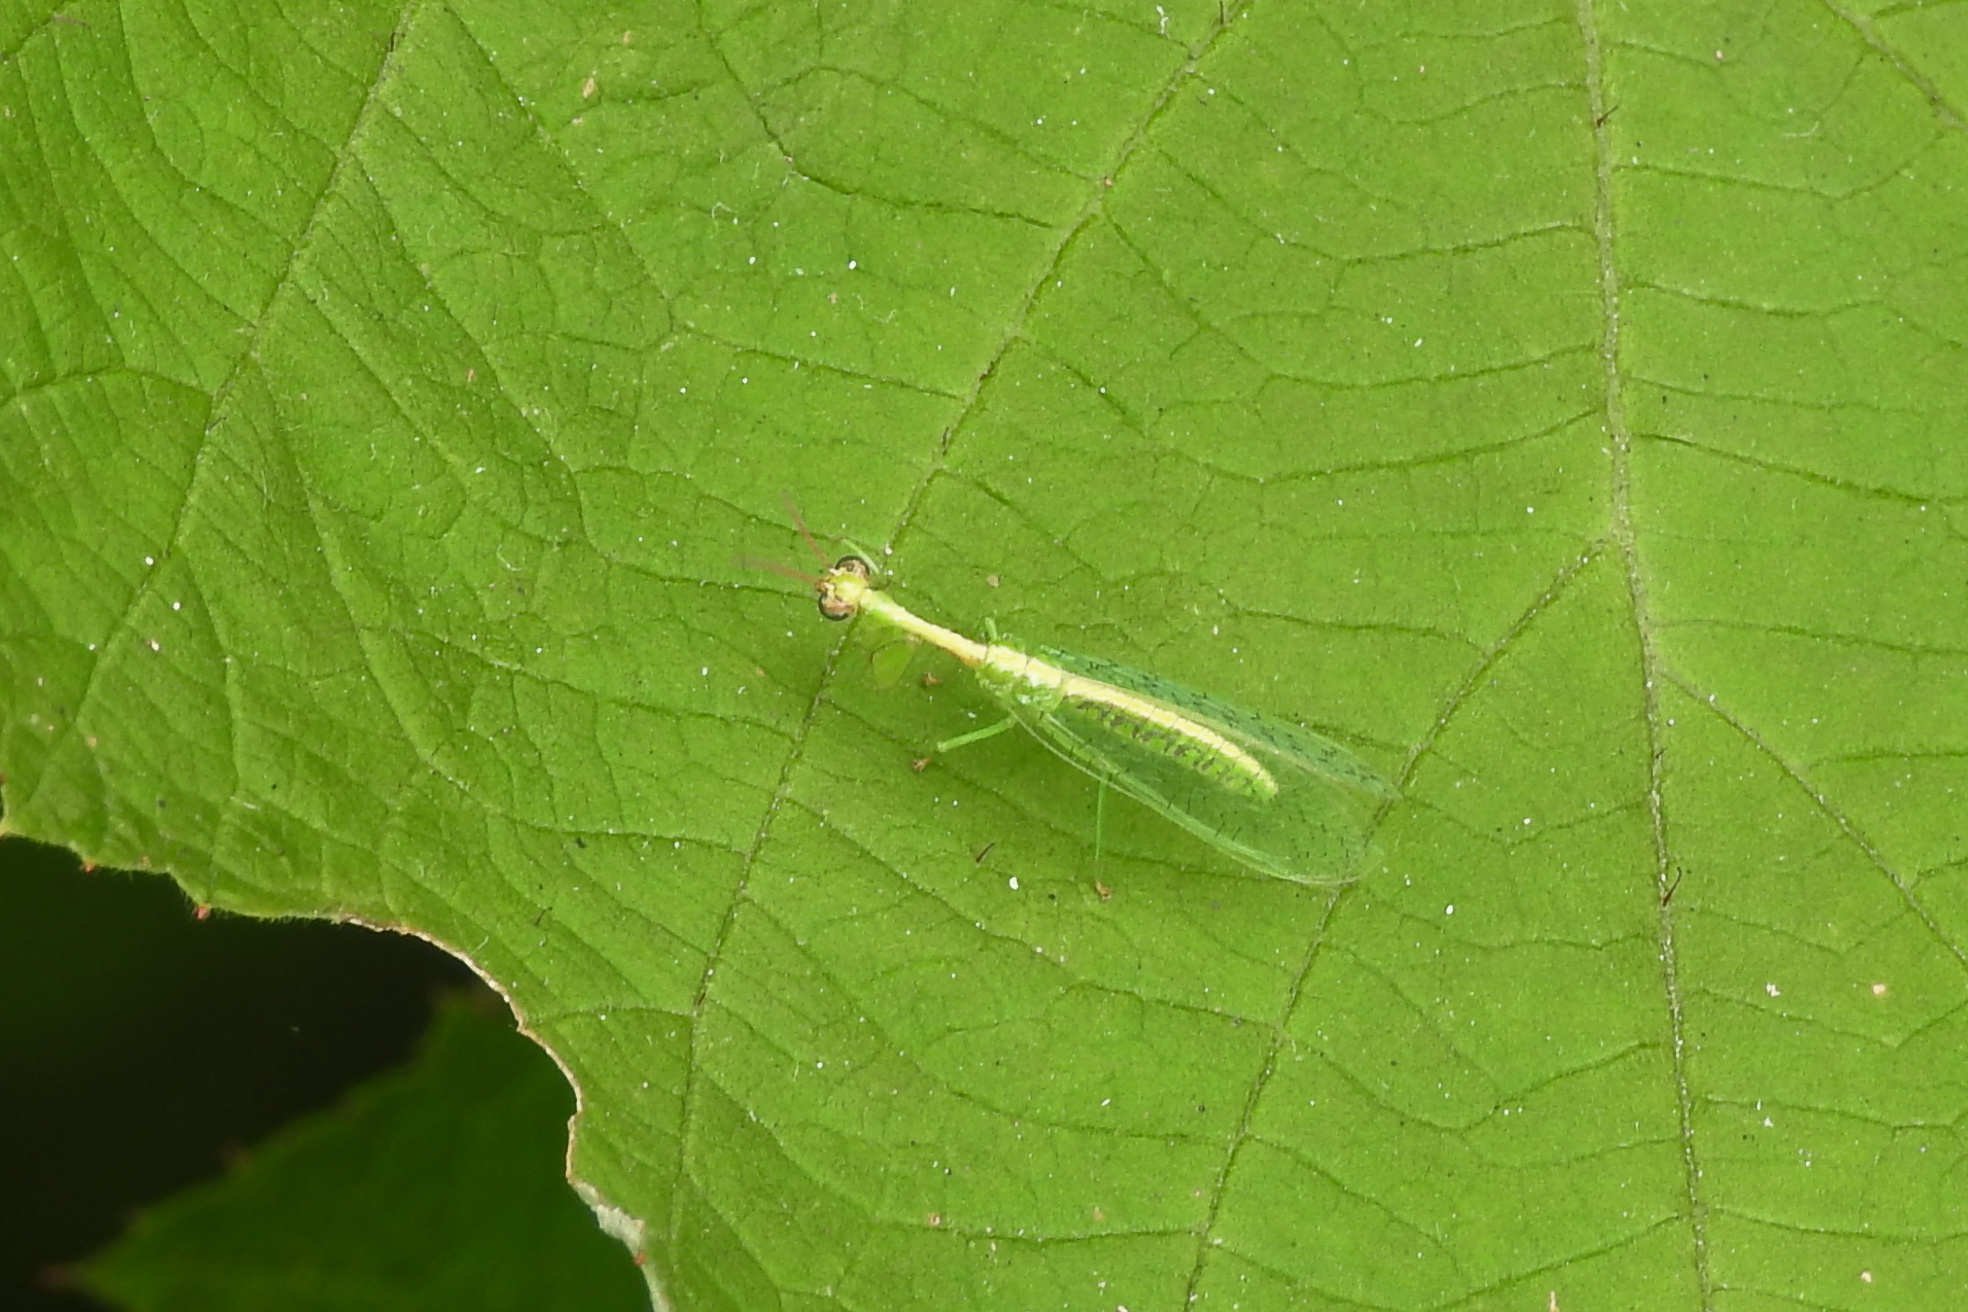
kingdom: Animalia
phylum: Arthropoda
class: Insecta
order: Neuroptera
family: Mantispidae
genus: Zeugomantispa
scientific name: Zeugomantispa minuta
